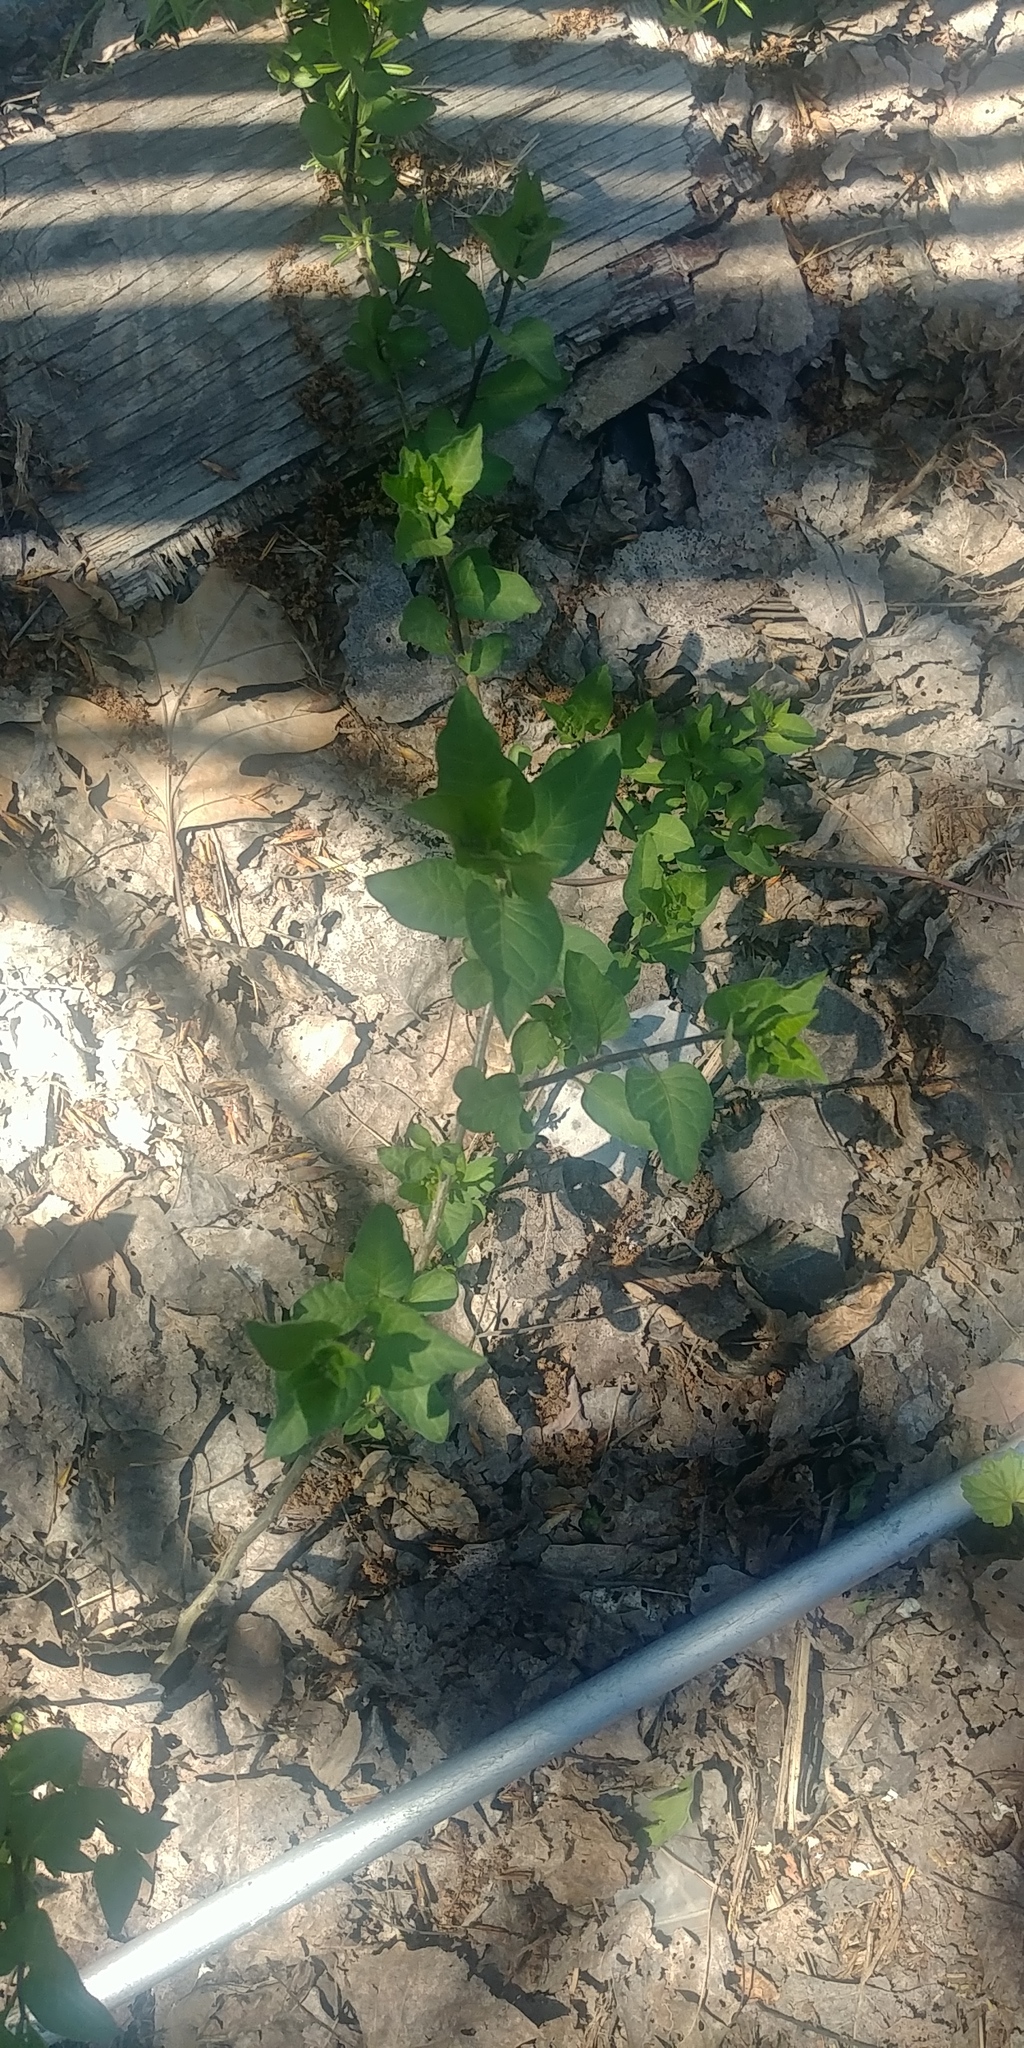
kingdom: Plantae
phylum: Tracheophyta
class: Magnoliopsida
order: Solanales
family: Solanaceae
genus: Solanum
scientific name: Solanum dulcamara
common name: Climbing nightshade
